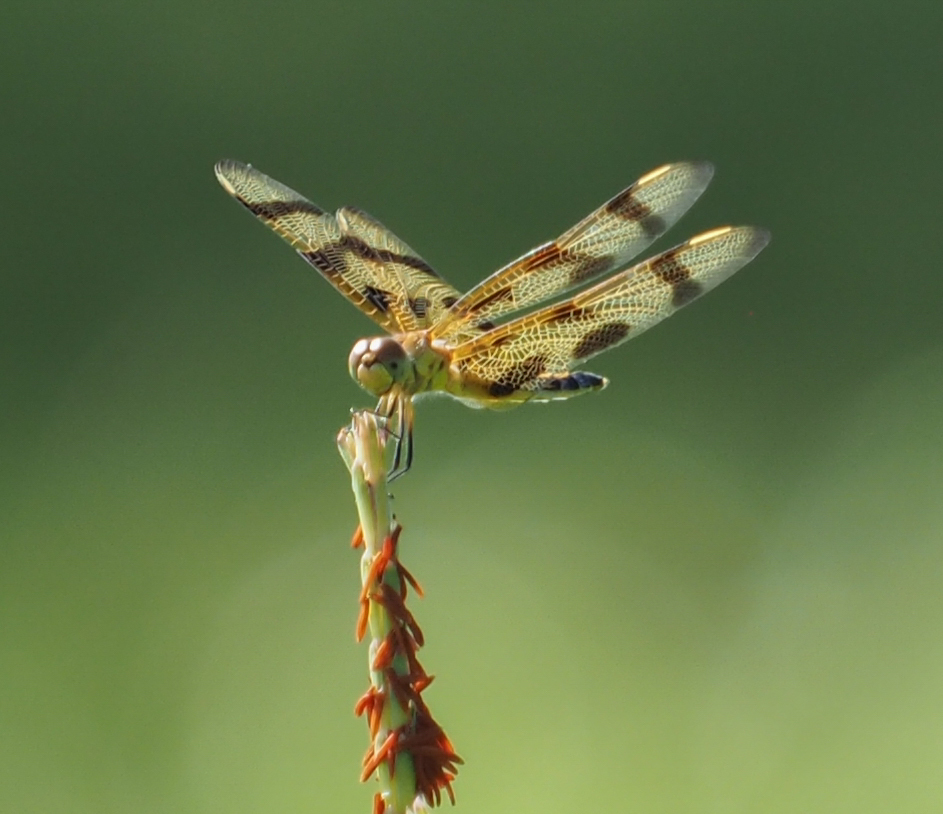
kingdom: Animalia
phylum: Arthropoda
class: Insecta
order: Odonata
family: Libellulidae
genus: Celithemis
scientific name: Celithemis eponina
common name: Halloween pennant
